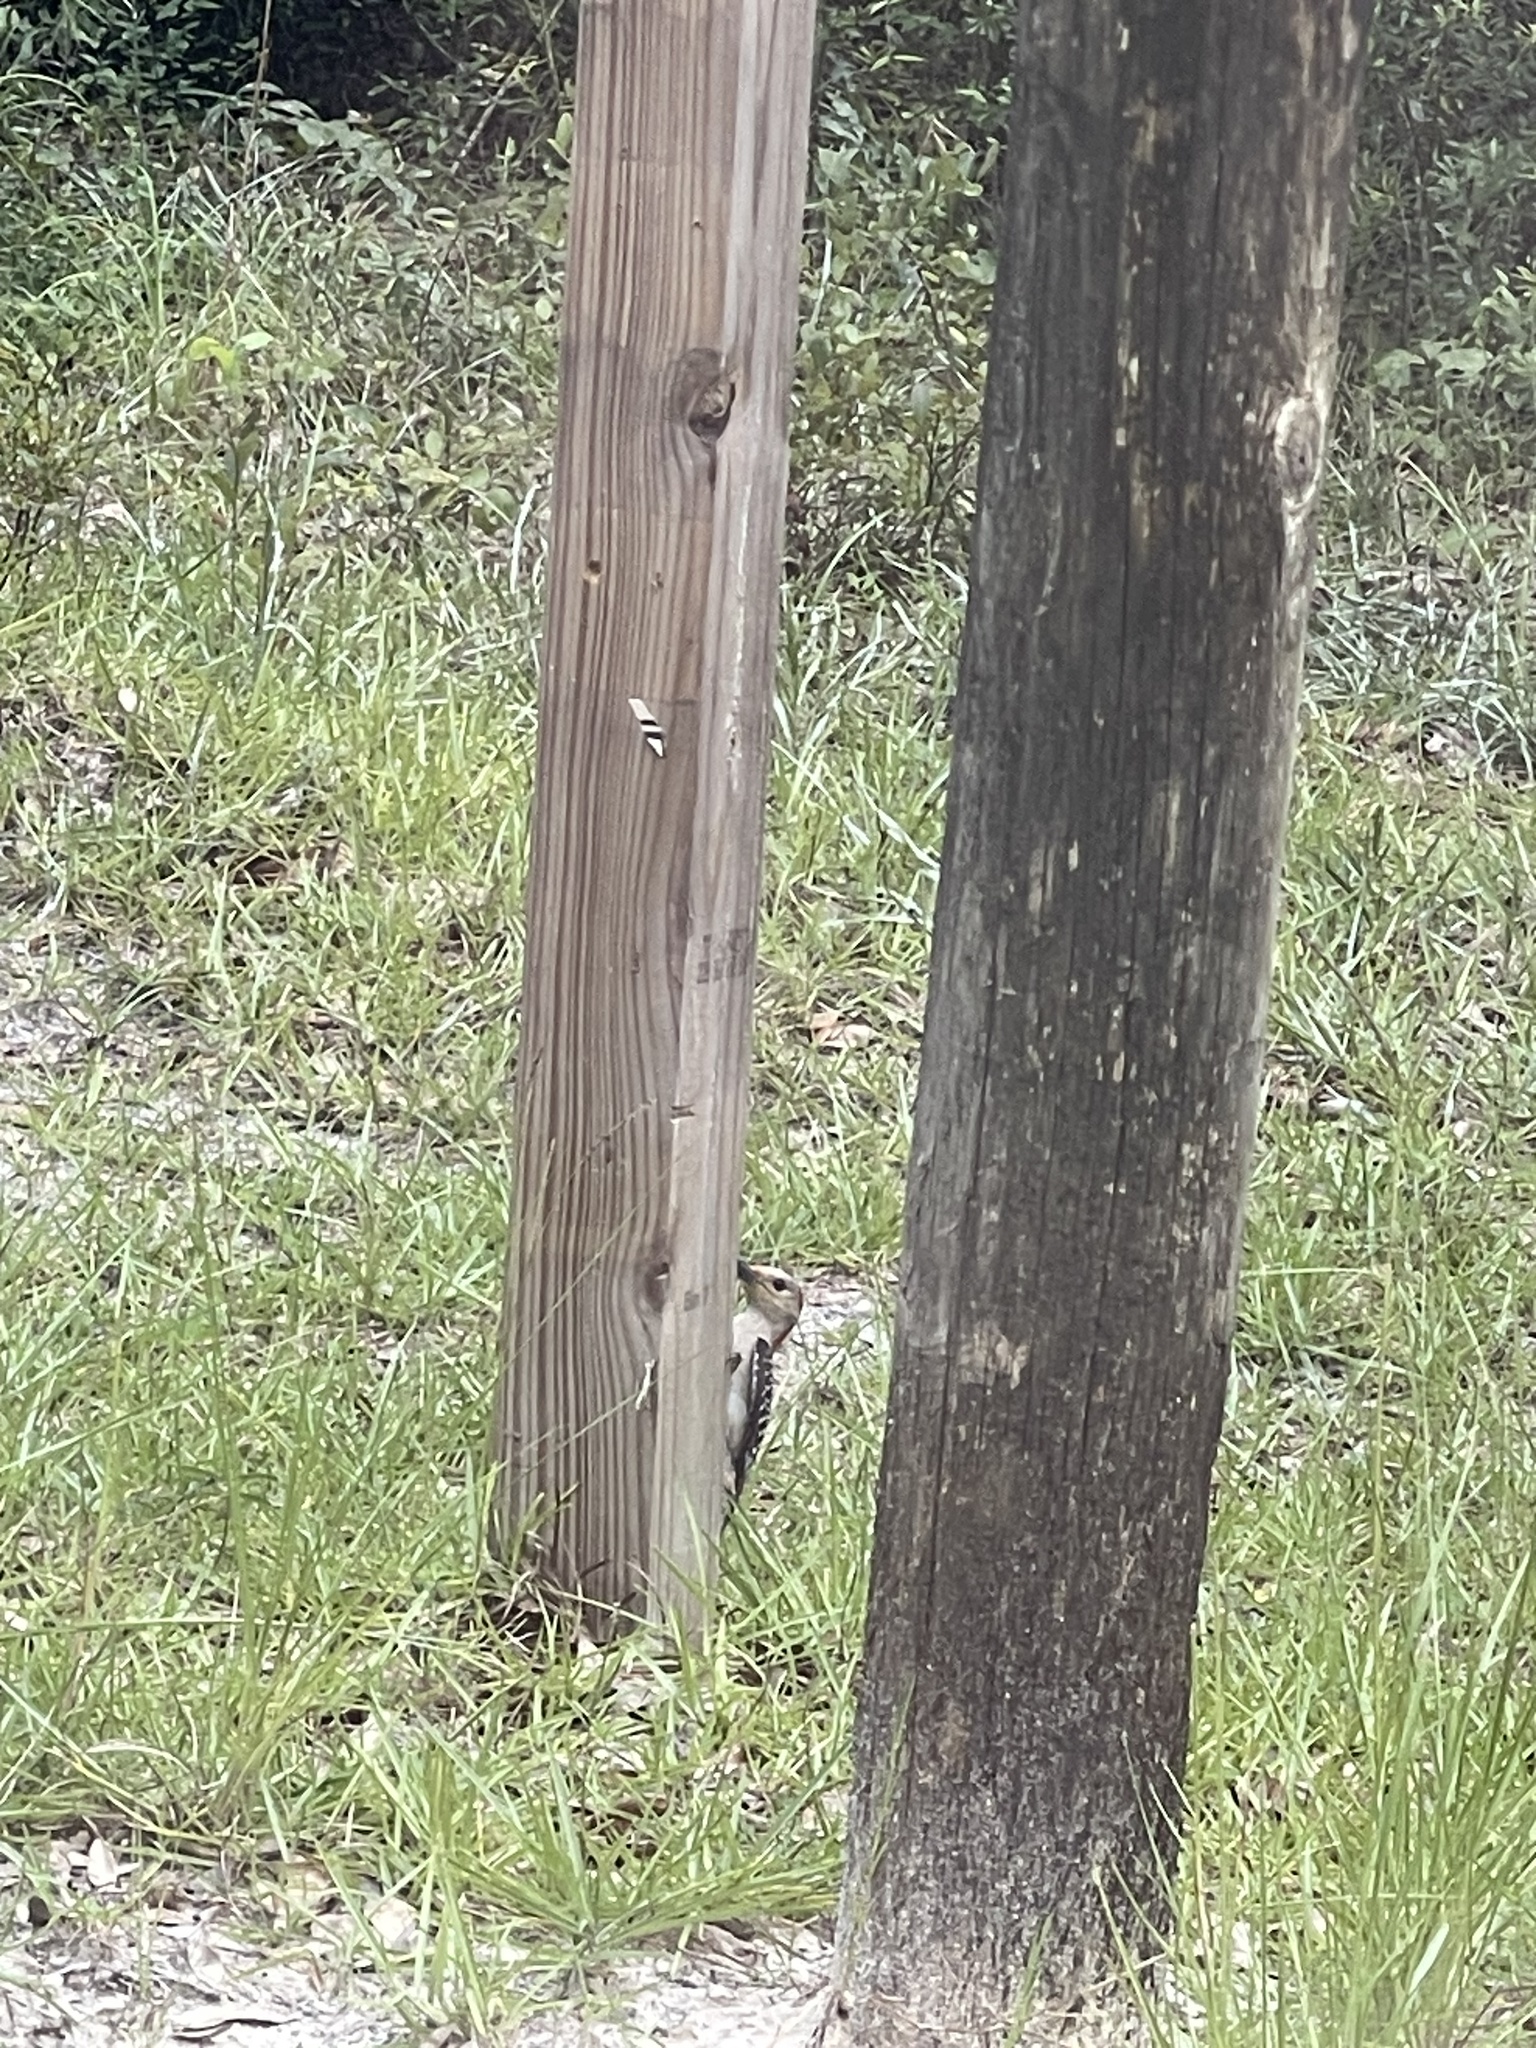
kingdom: Animalia
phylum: Chordata
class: Aves
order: Piciformes
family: Picidae
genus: Melanerpes
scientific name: Melanerpes carolinus
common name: Red-bellied woodpecker
